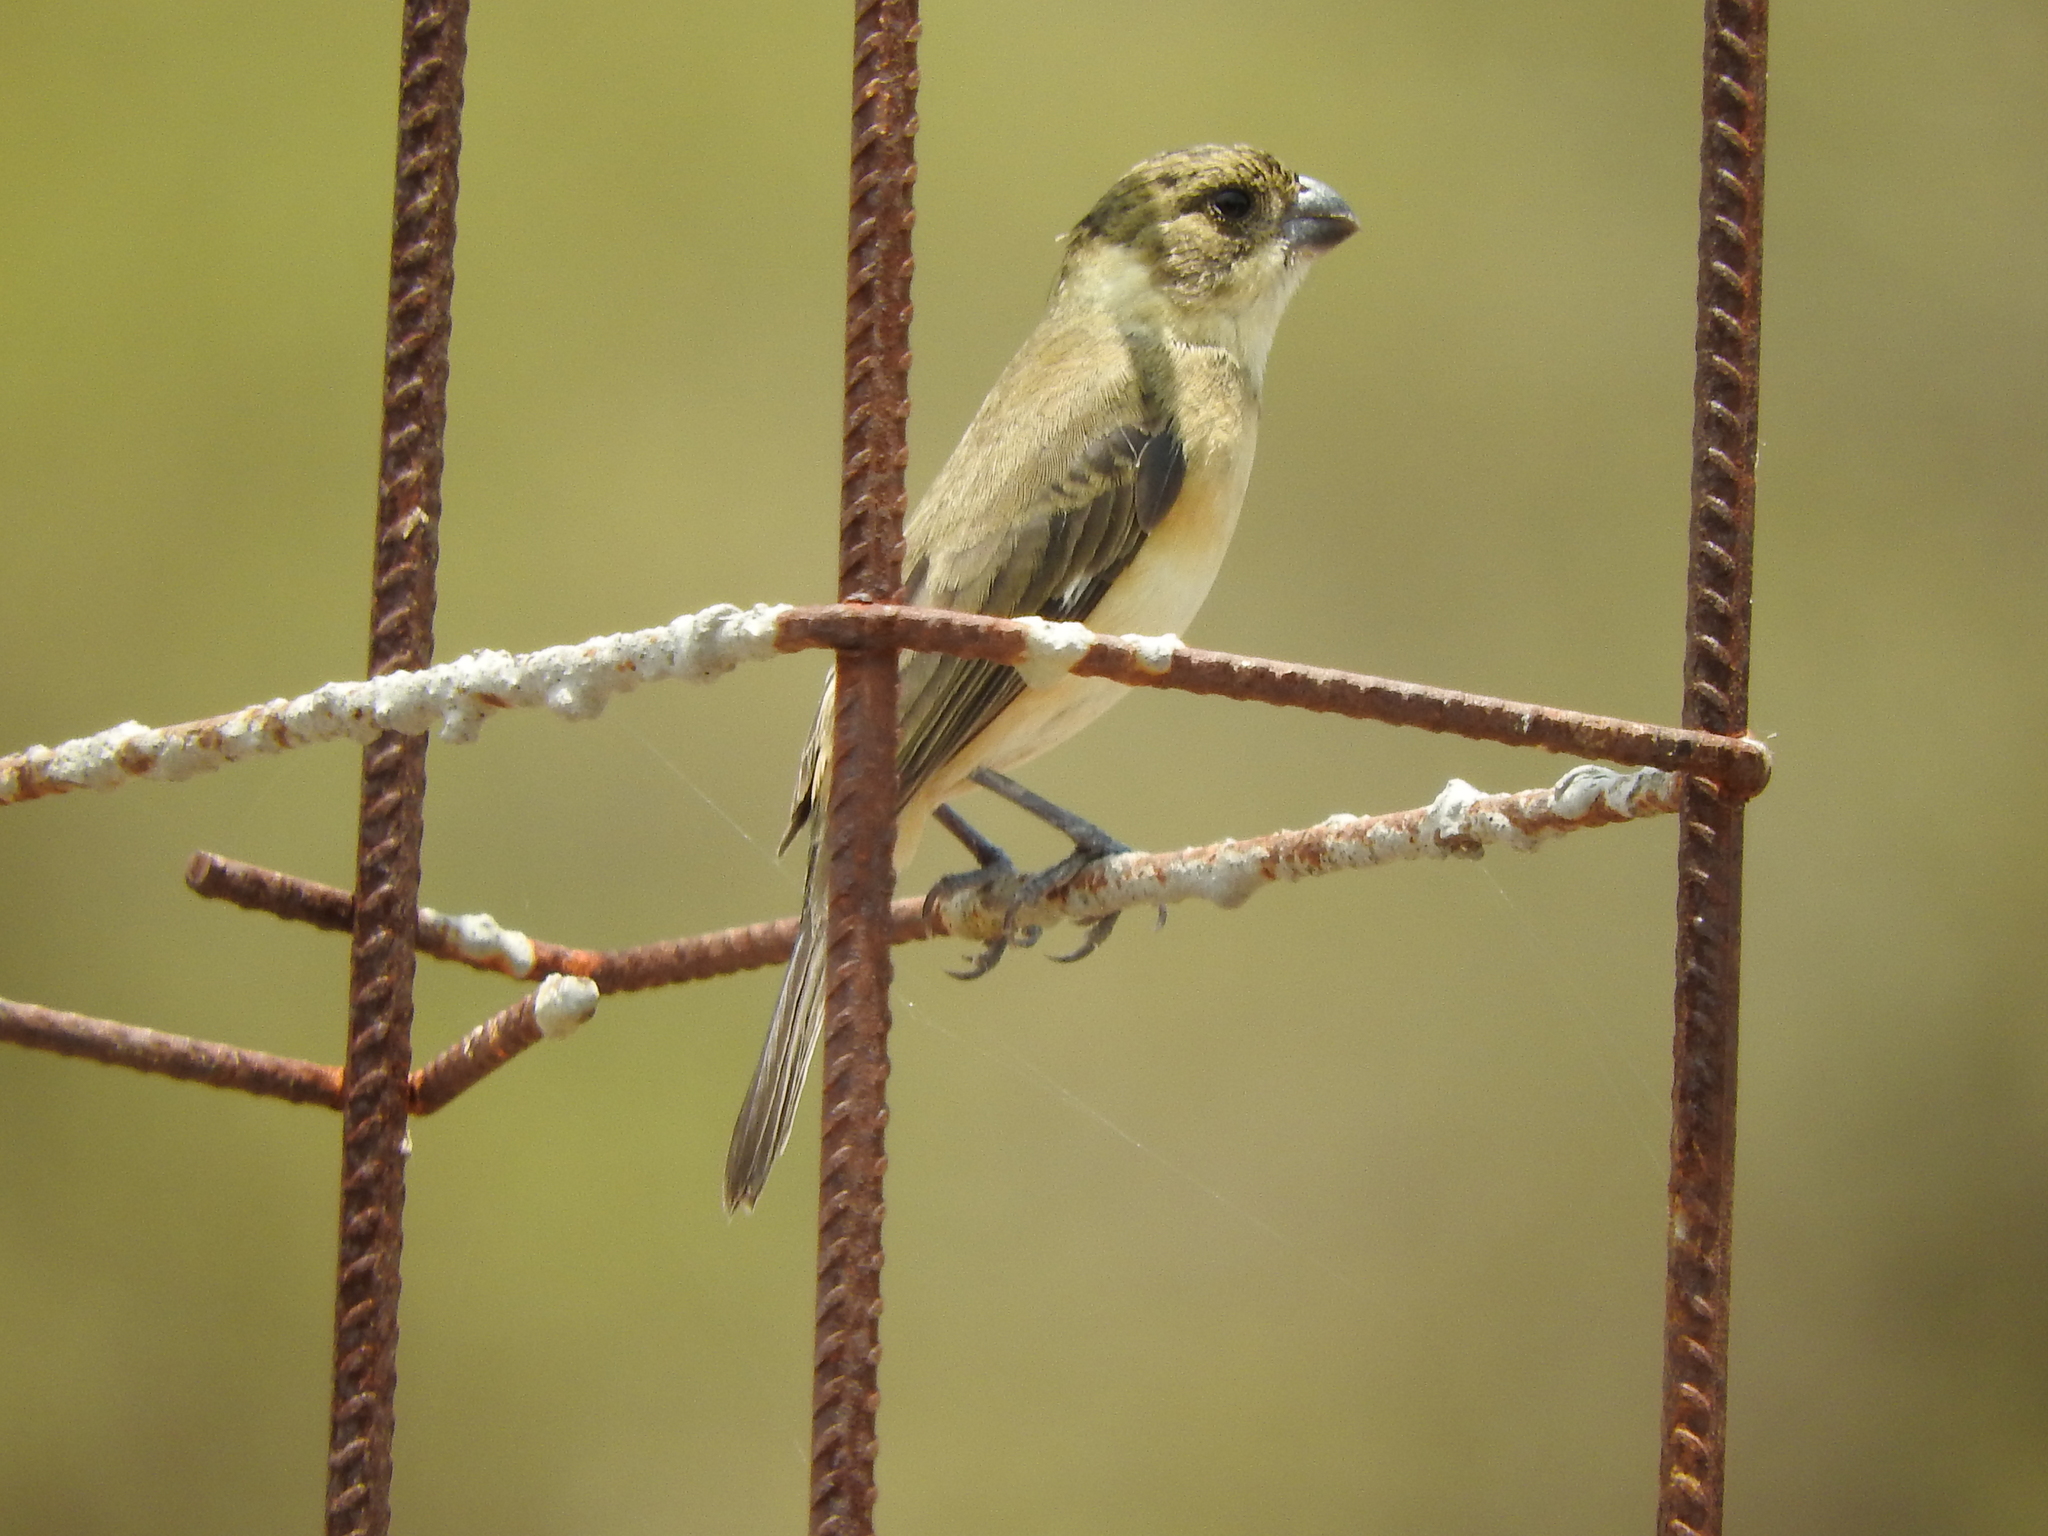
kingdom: Animalia
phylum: Chordata
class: Aves
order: Passeriformes
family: Thraupidae
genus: Sporophila
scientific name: Sporophila torqueola
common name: White-collared seedeater
